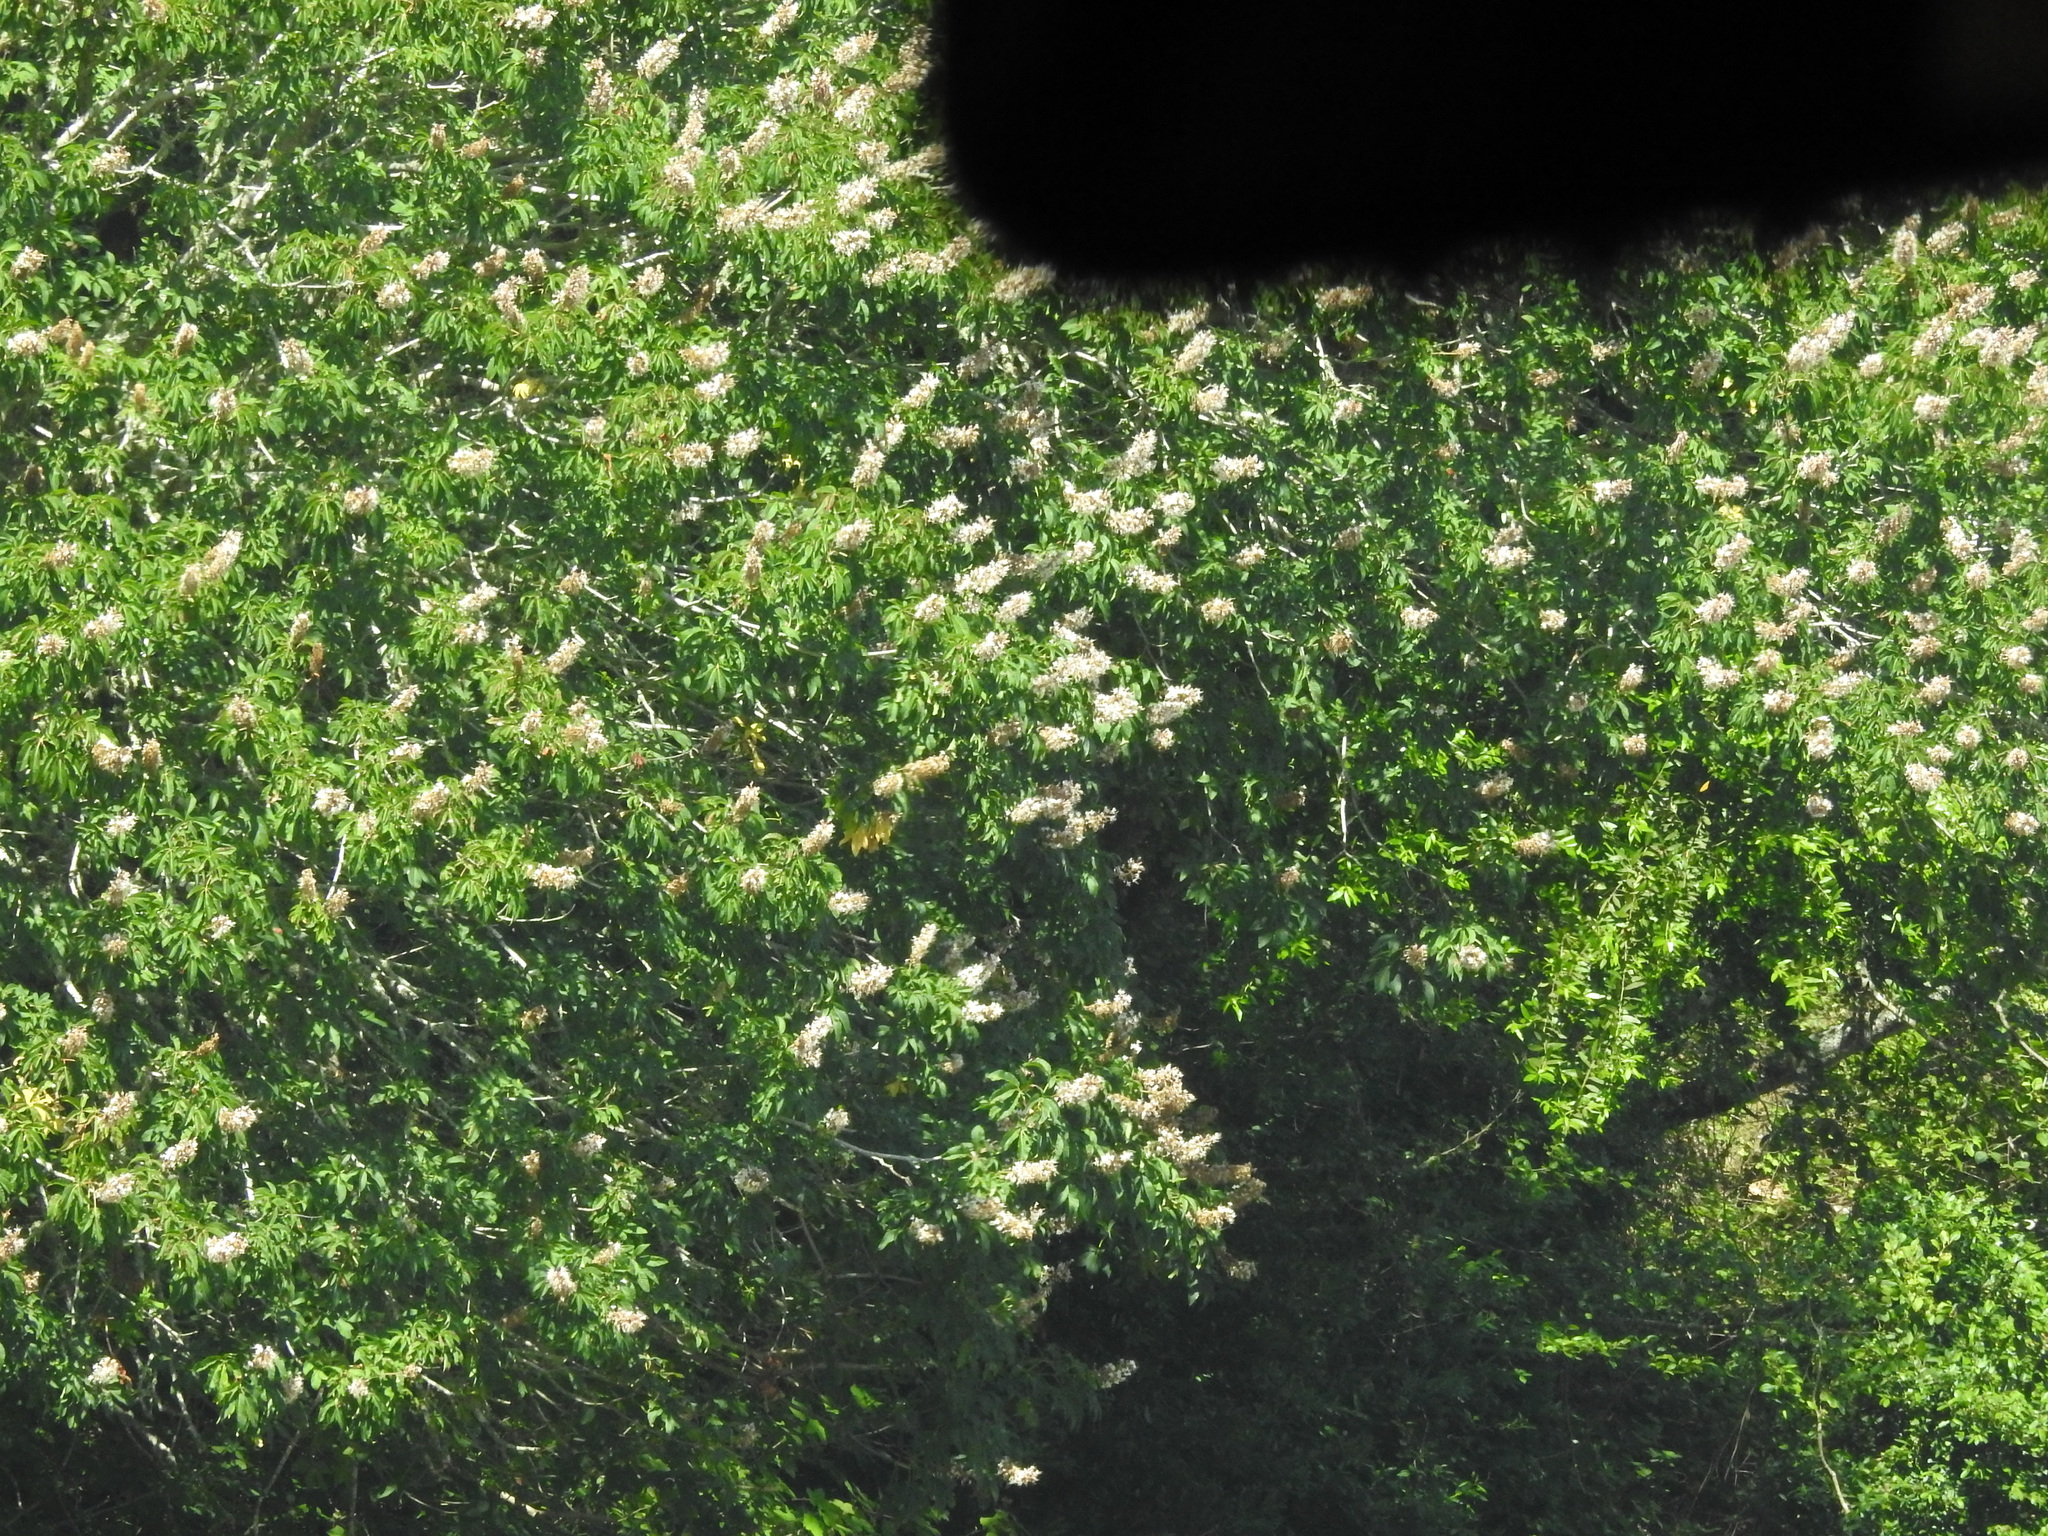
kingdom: Plantae
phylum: Tracheophyta
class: Magnoliopsida
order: Sapindales
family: Sapindaceae
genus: Aesculus
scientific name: Aesculus californica
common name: California buckeye
